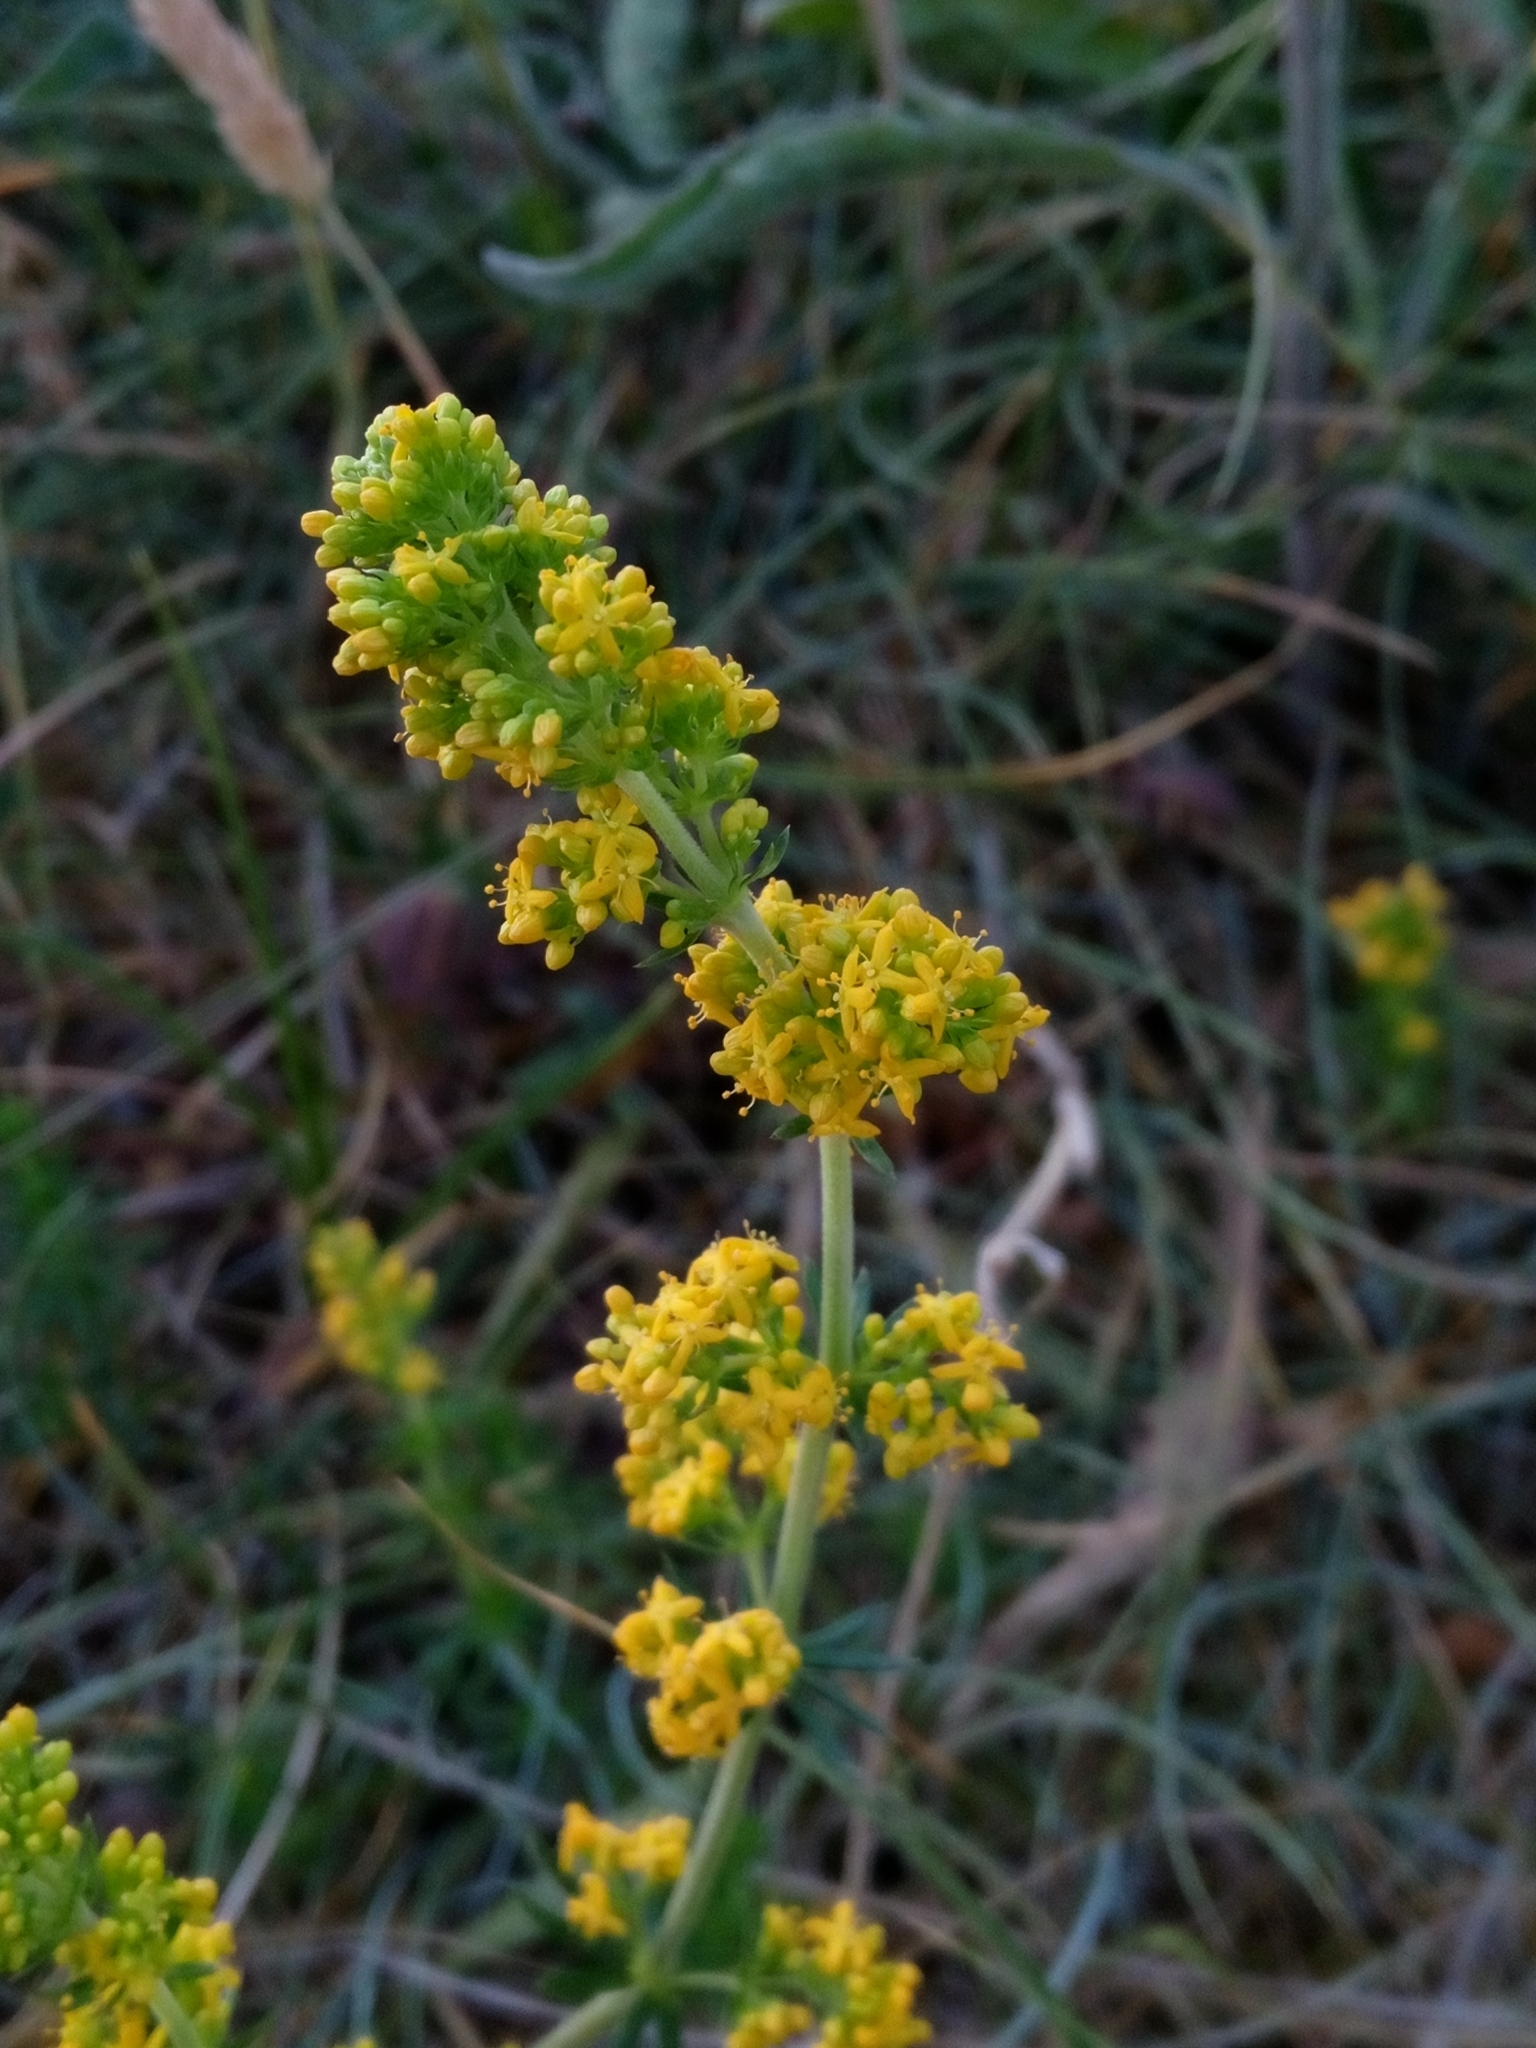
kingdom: Plantae
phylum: Tracheophyta
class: Magnoliopsida
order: Gentianales
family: Rubiaceae
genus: Galium
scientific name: Galium verum
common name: Lady's bedstraw
